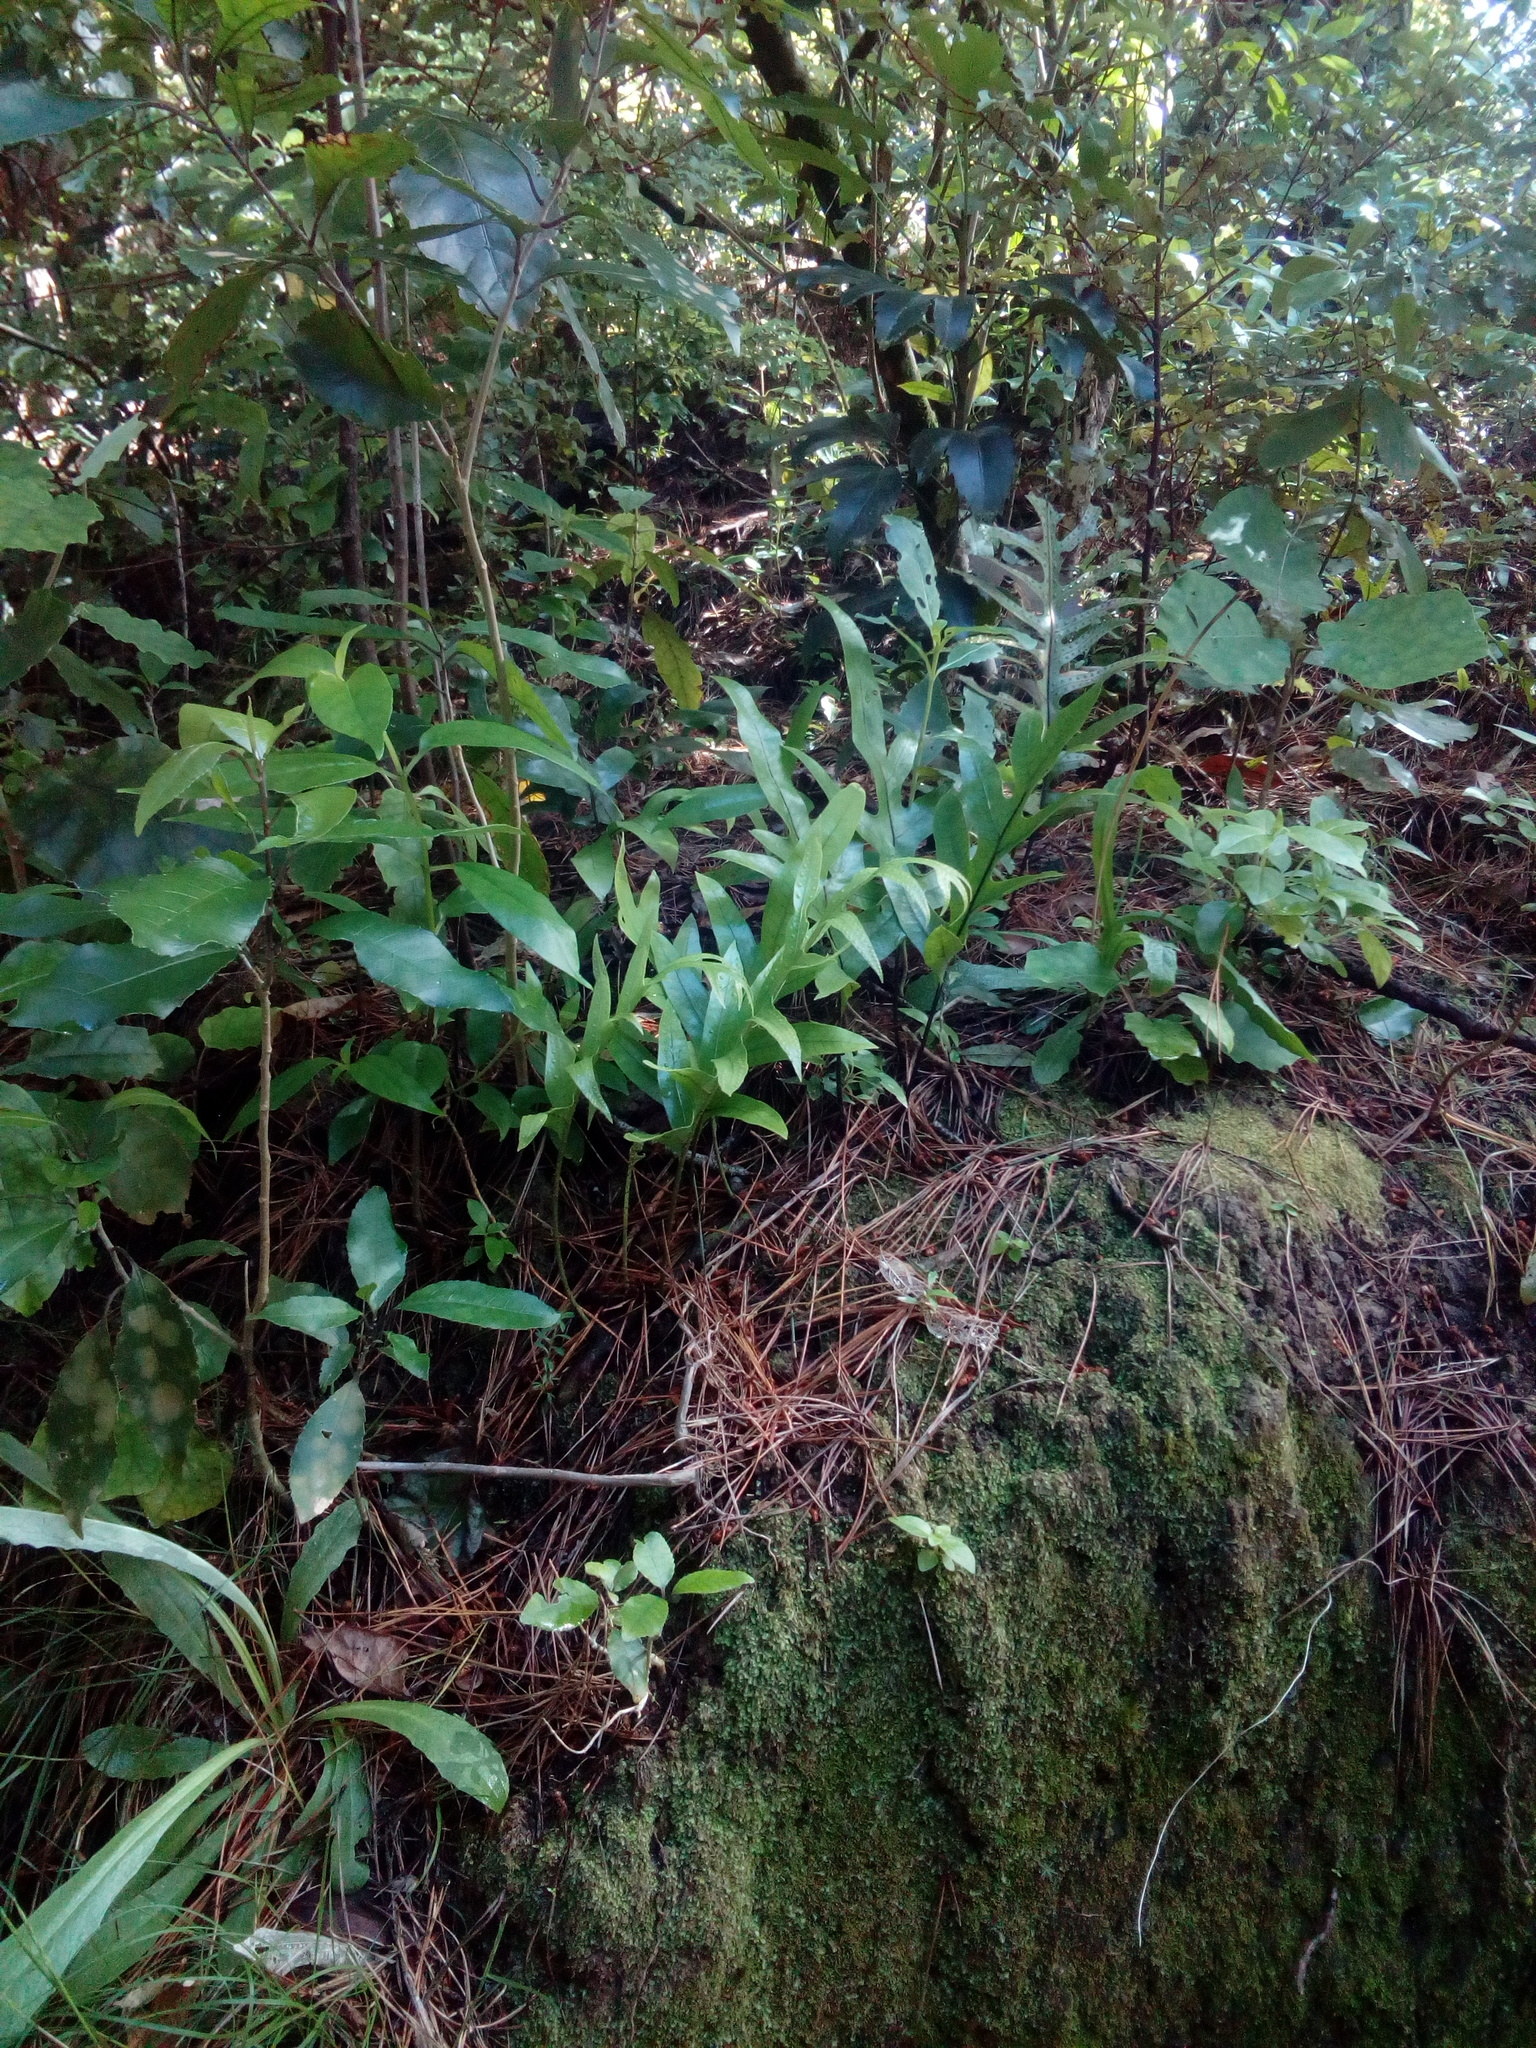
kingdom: Plantae
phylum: Tracheophyta
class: Polypodiopsida
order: Polypodiales
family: Polypodiaceae
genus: Lecanopteris
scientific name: Lecanopteris pustulata
